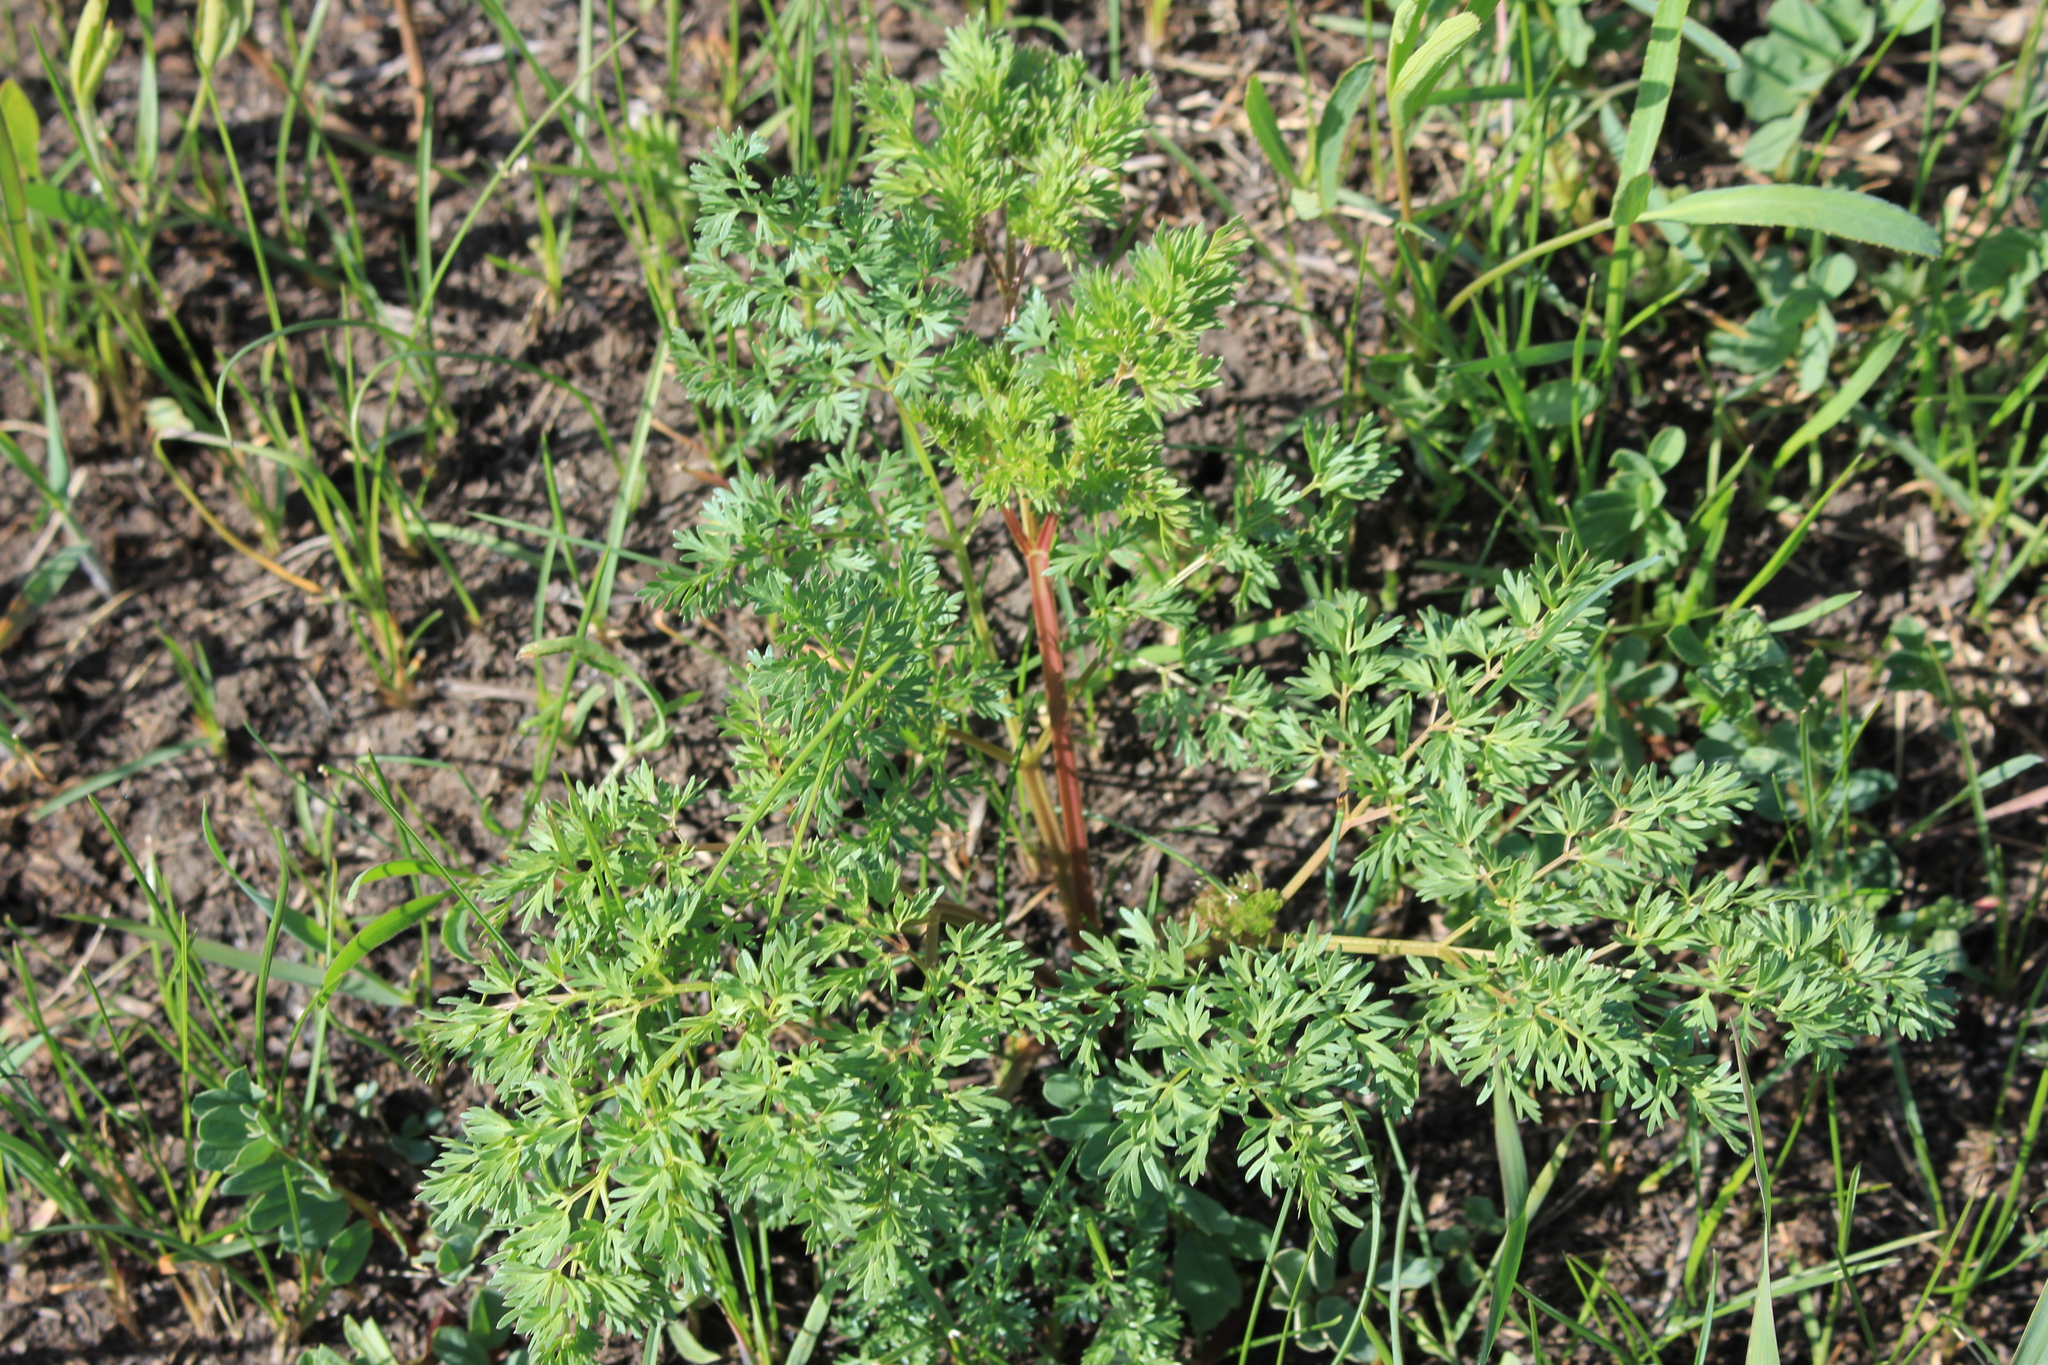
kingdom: Plantae
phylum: Tracheophyta
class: Magnoliopsida
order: Apiales
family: Apiaceae
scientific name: Apiaceae
